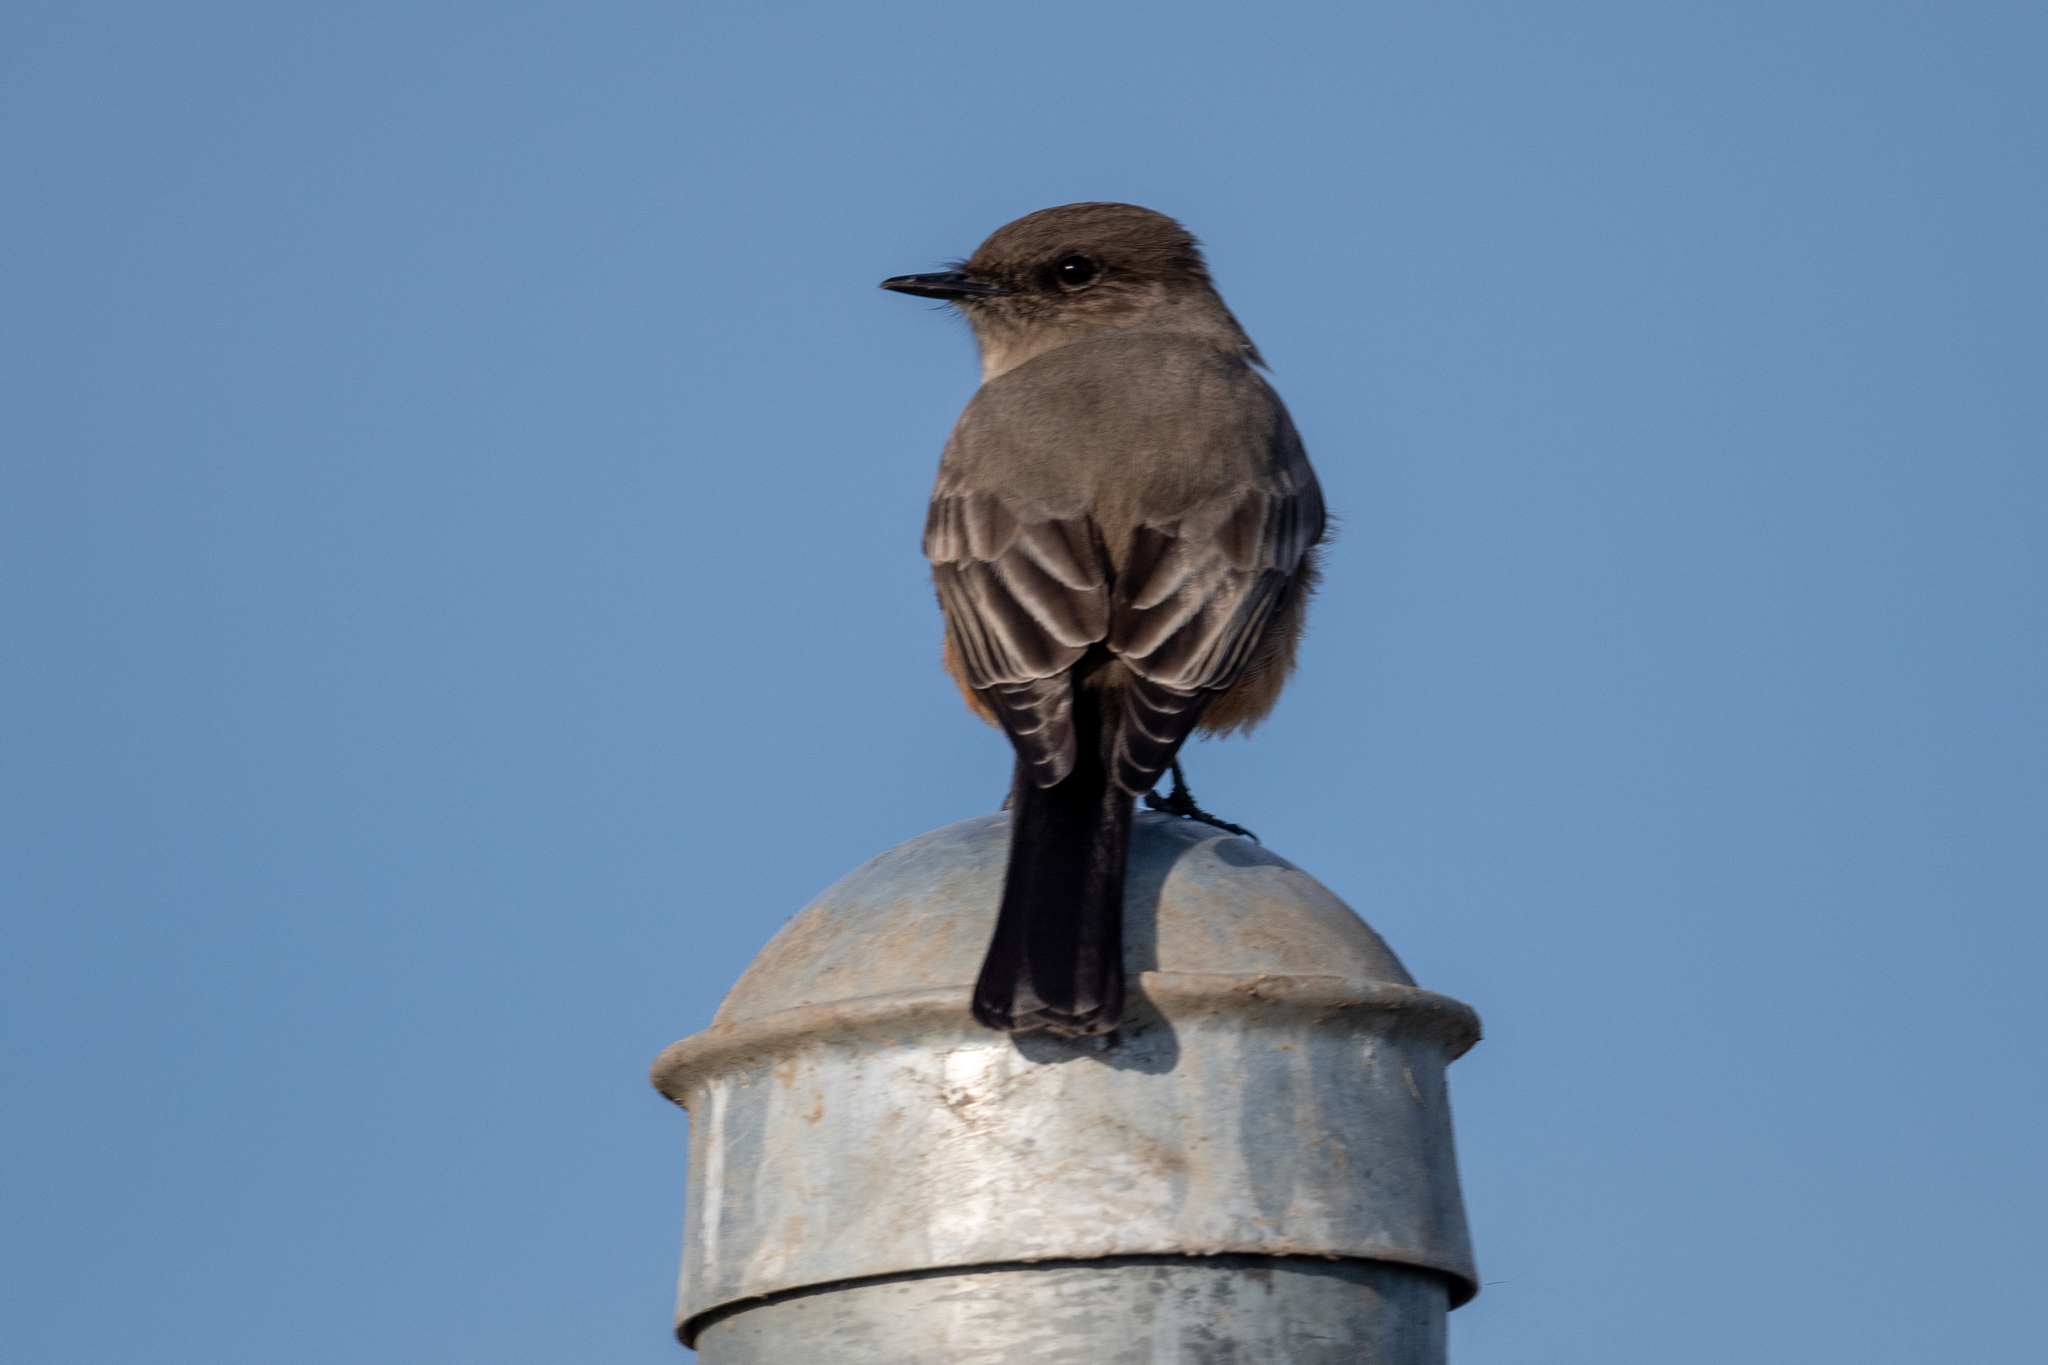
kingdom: Animalia
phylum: Chordata
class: Aves
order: Passeriformes
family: Tyrannidae
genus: Sayornis
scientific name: Sayornis saya
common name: Say's phoebe
